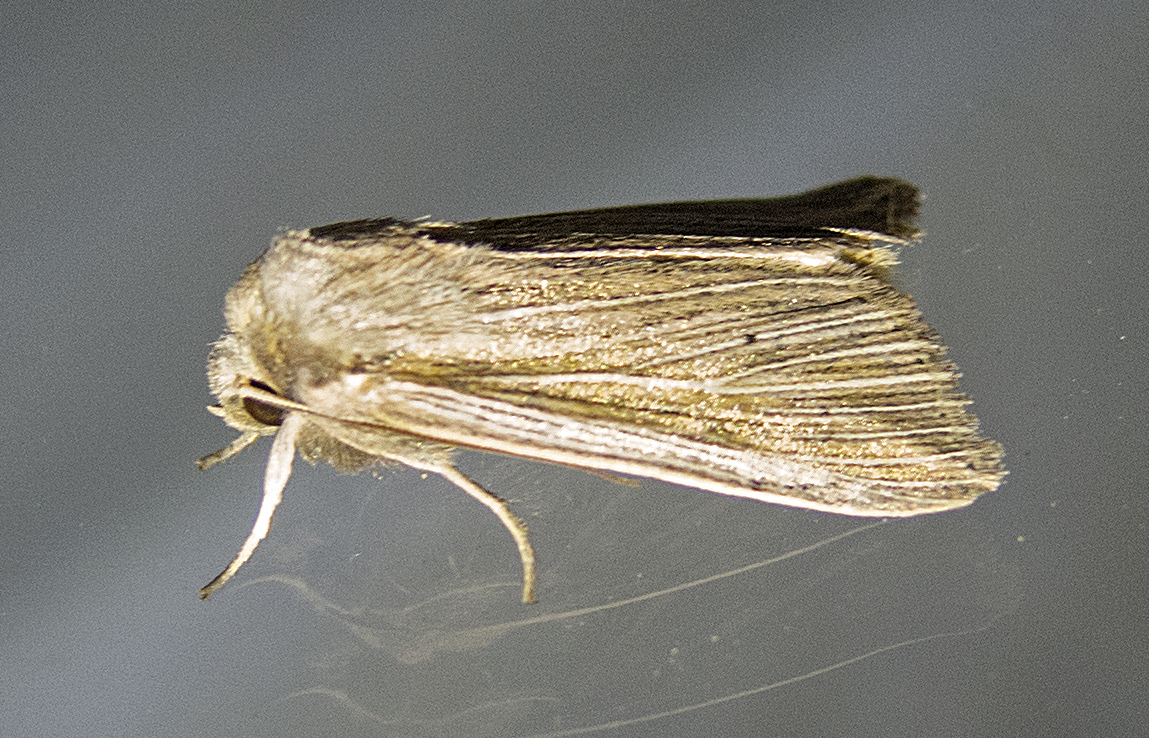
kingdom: Animalia
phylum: Arthropoda
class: Insecta
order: Lepidoptera
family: Noctuidae
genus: Mythimna
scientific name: Mythimna riparia
